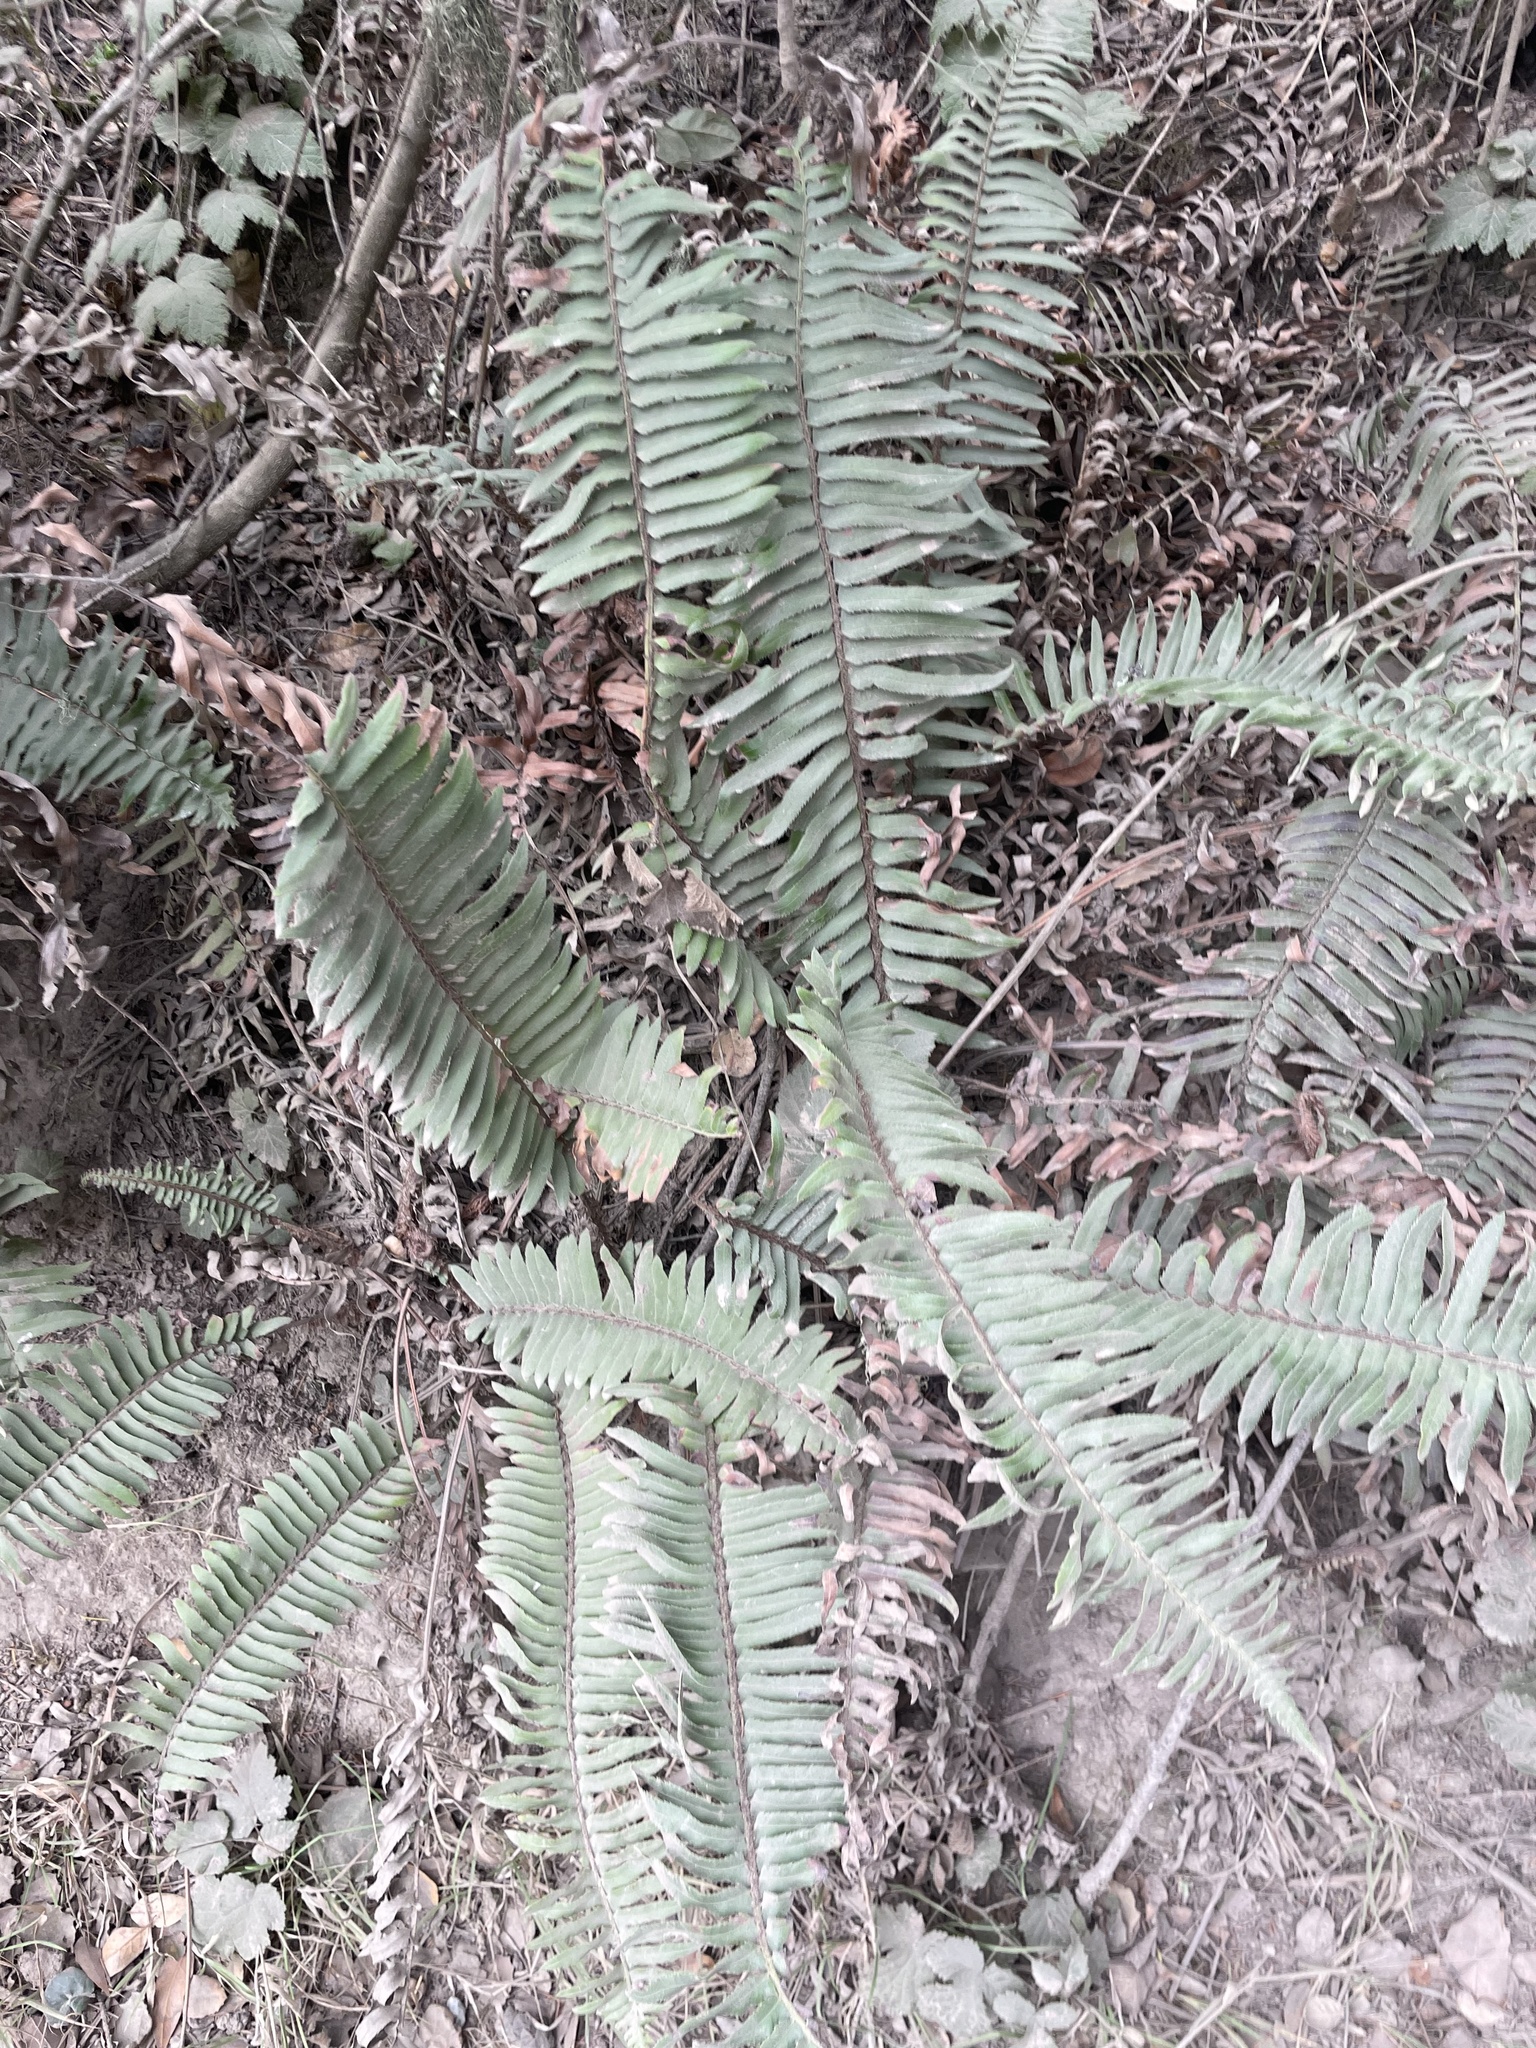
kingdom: Plantae
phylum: Tracheophyta
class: Polypodiopsida
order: Polypodiales
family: Dryopteridaceae
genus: Polystichum
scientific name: Polystichum munitum
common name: Western sword-fern
